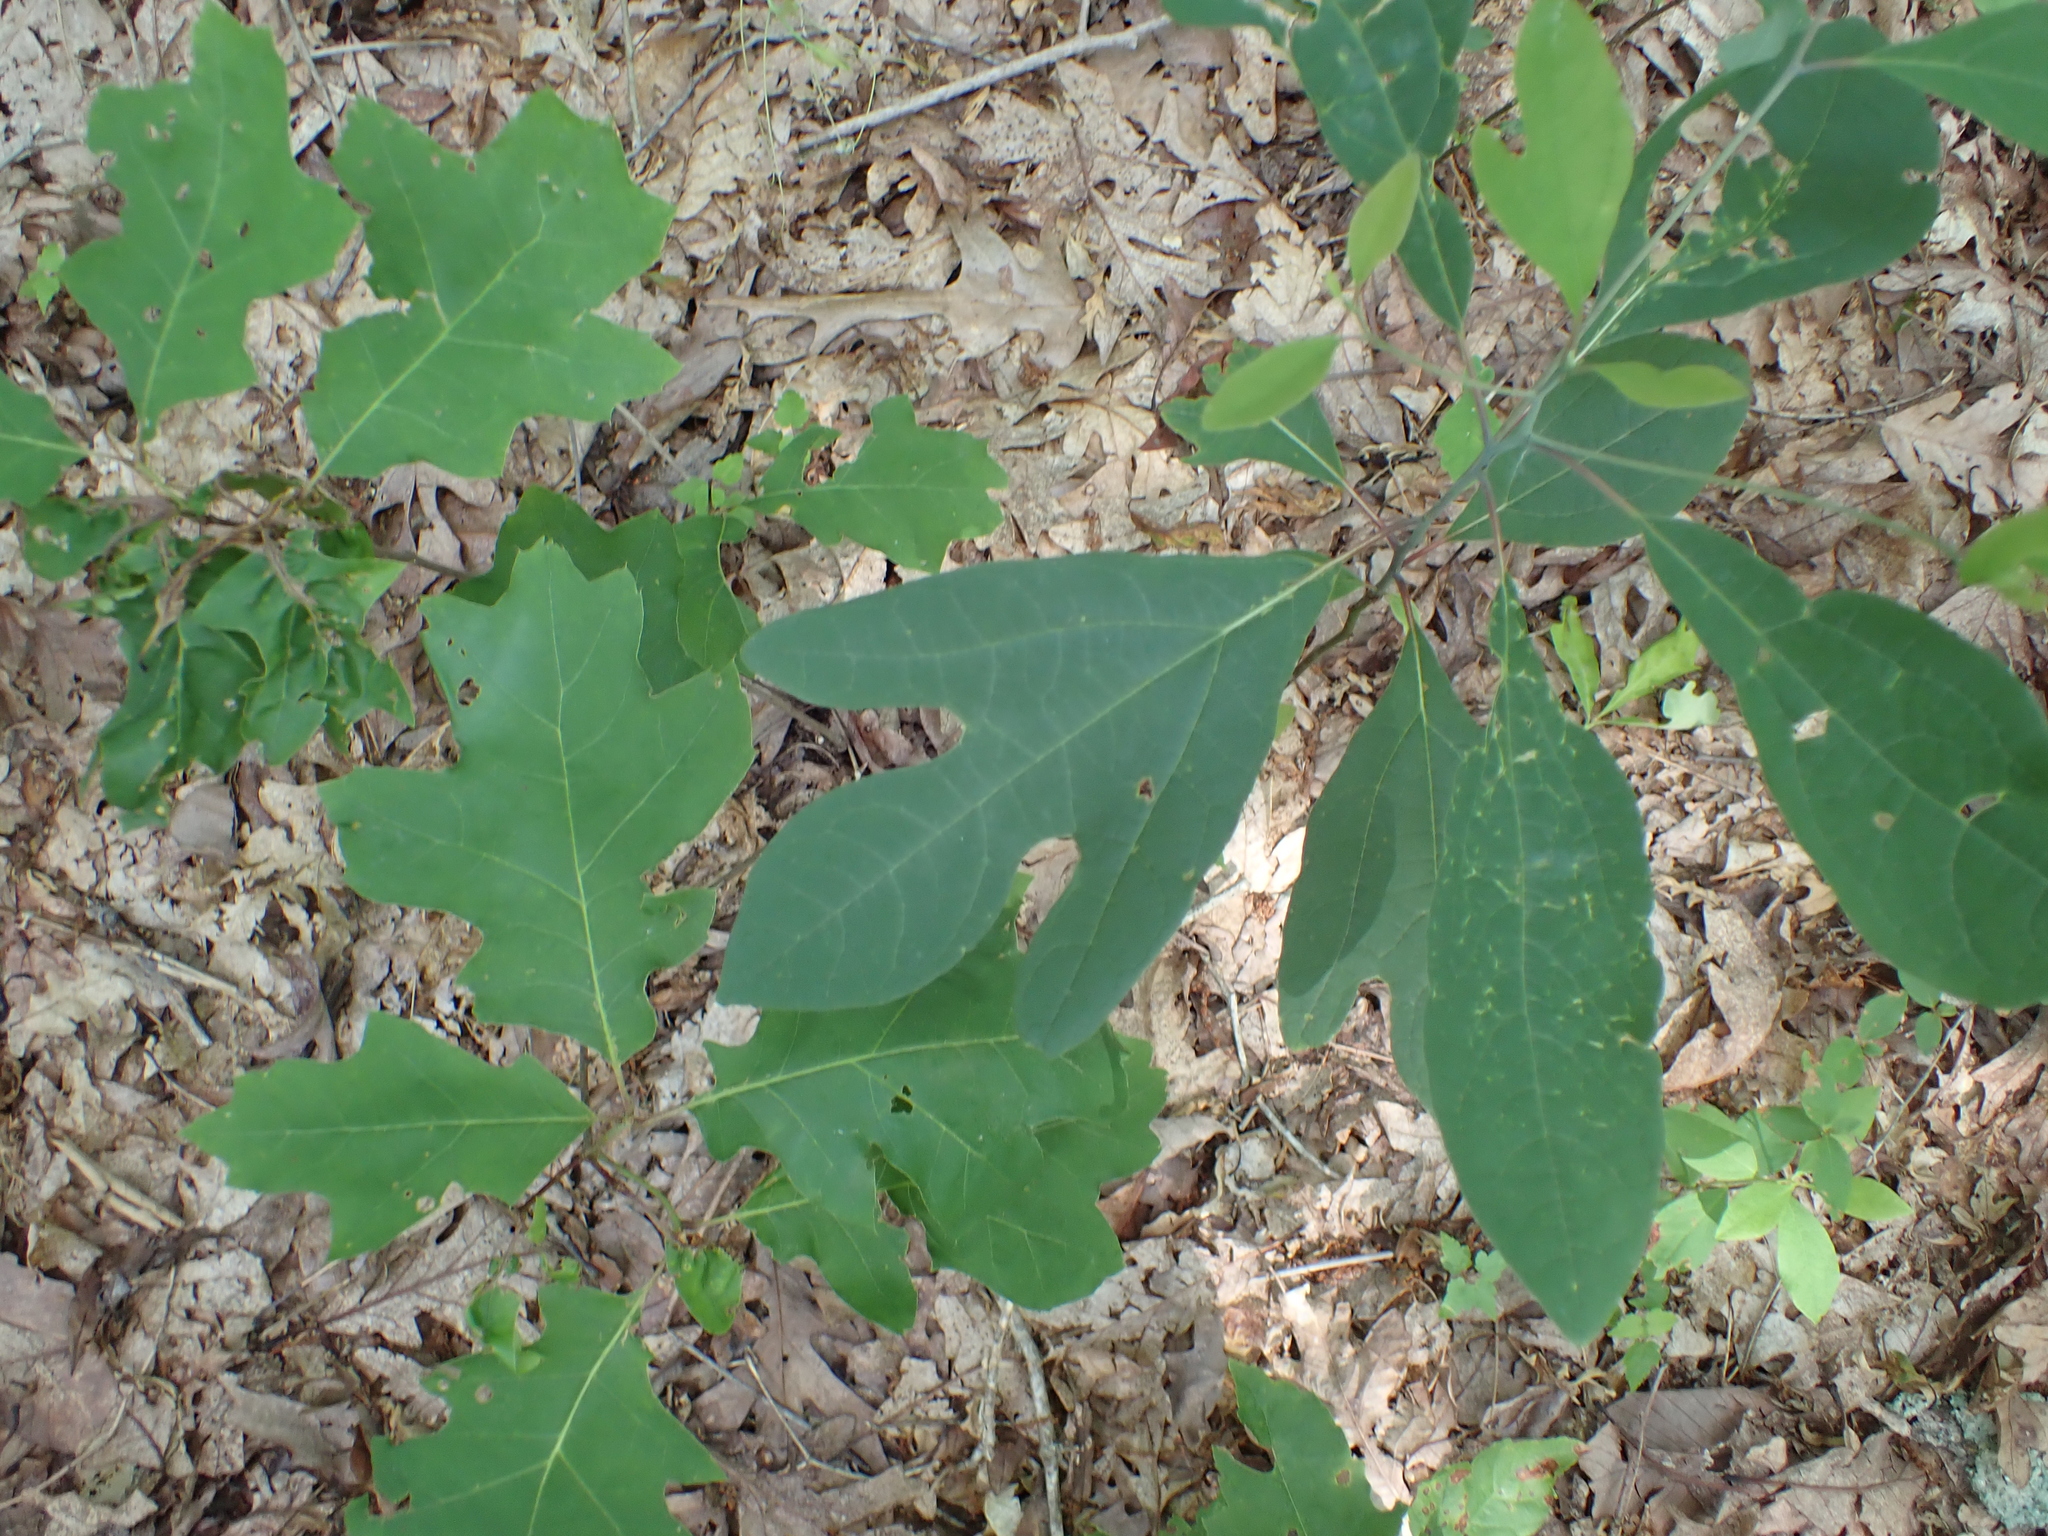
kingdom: Plantae
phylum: Tracheophyta
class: Magnoliopsida
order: Laurales
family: Lauraceae
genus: Sassafras
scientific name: Sassafras albidum
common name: Sassafras
